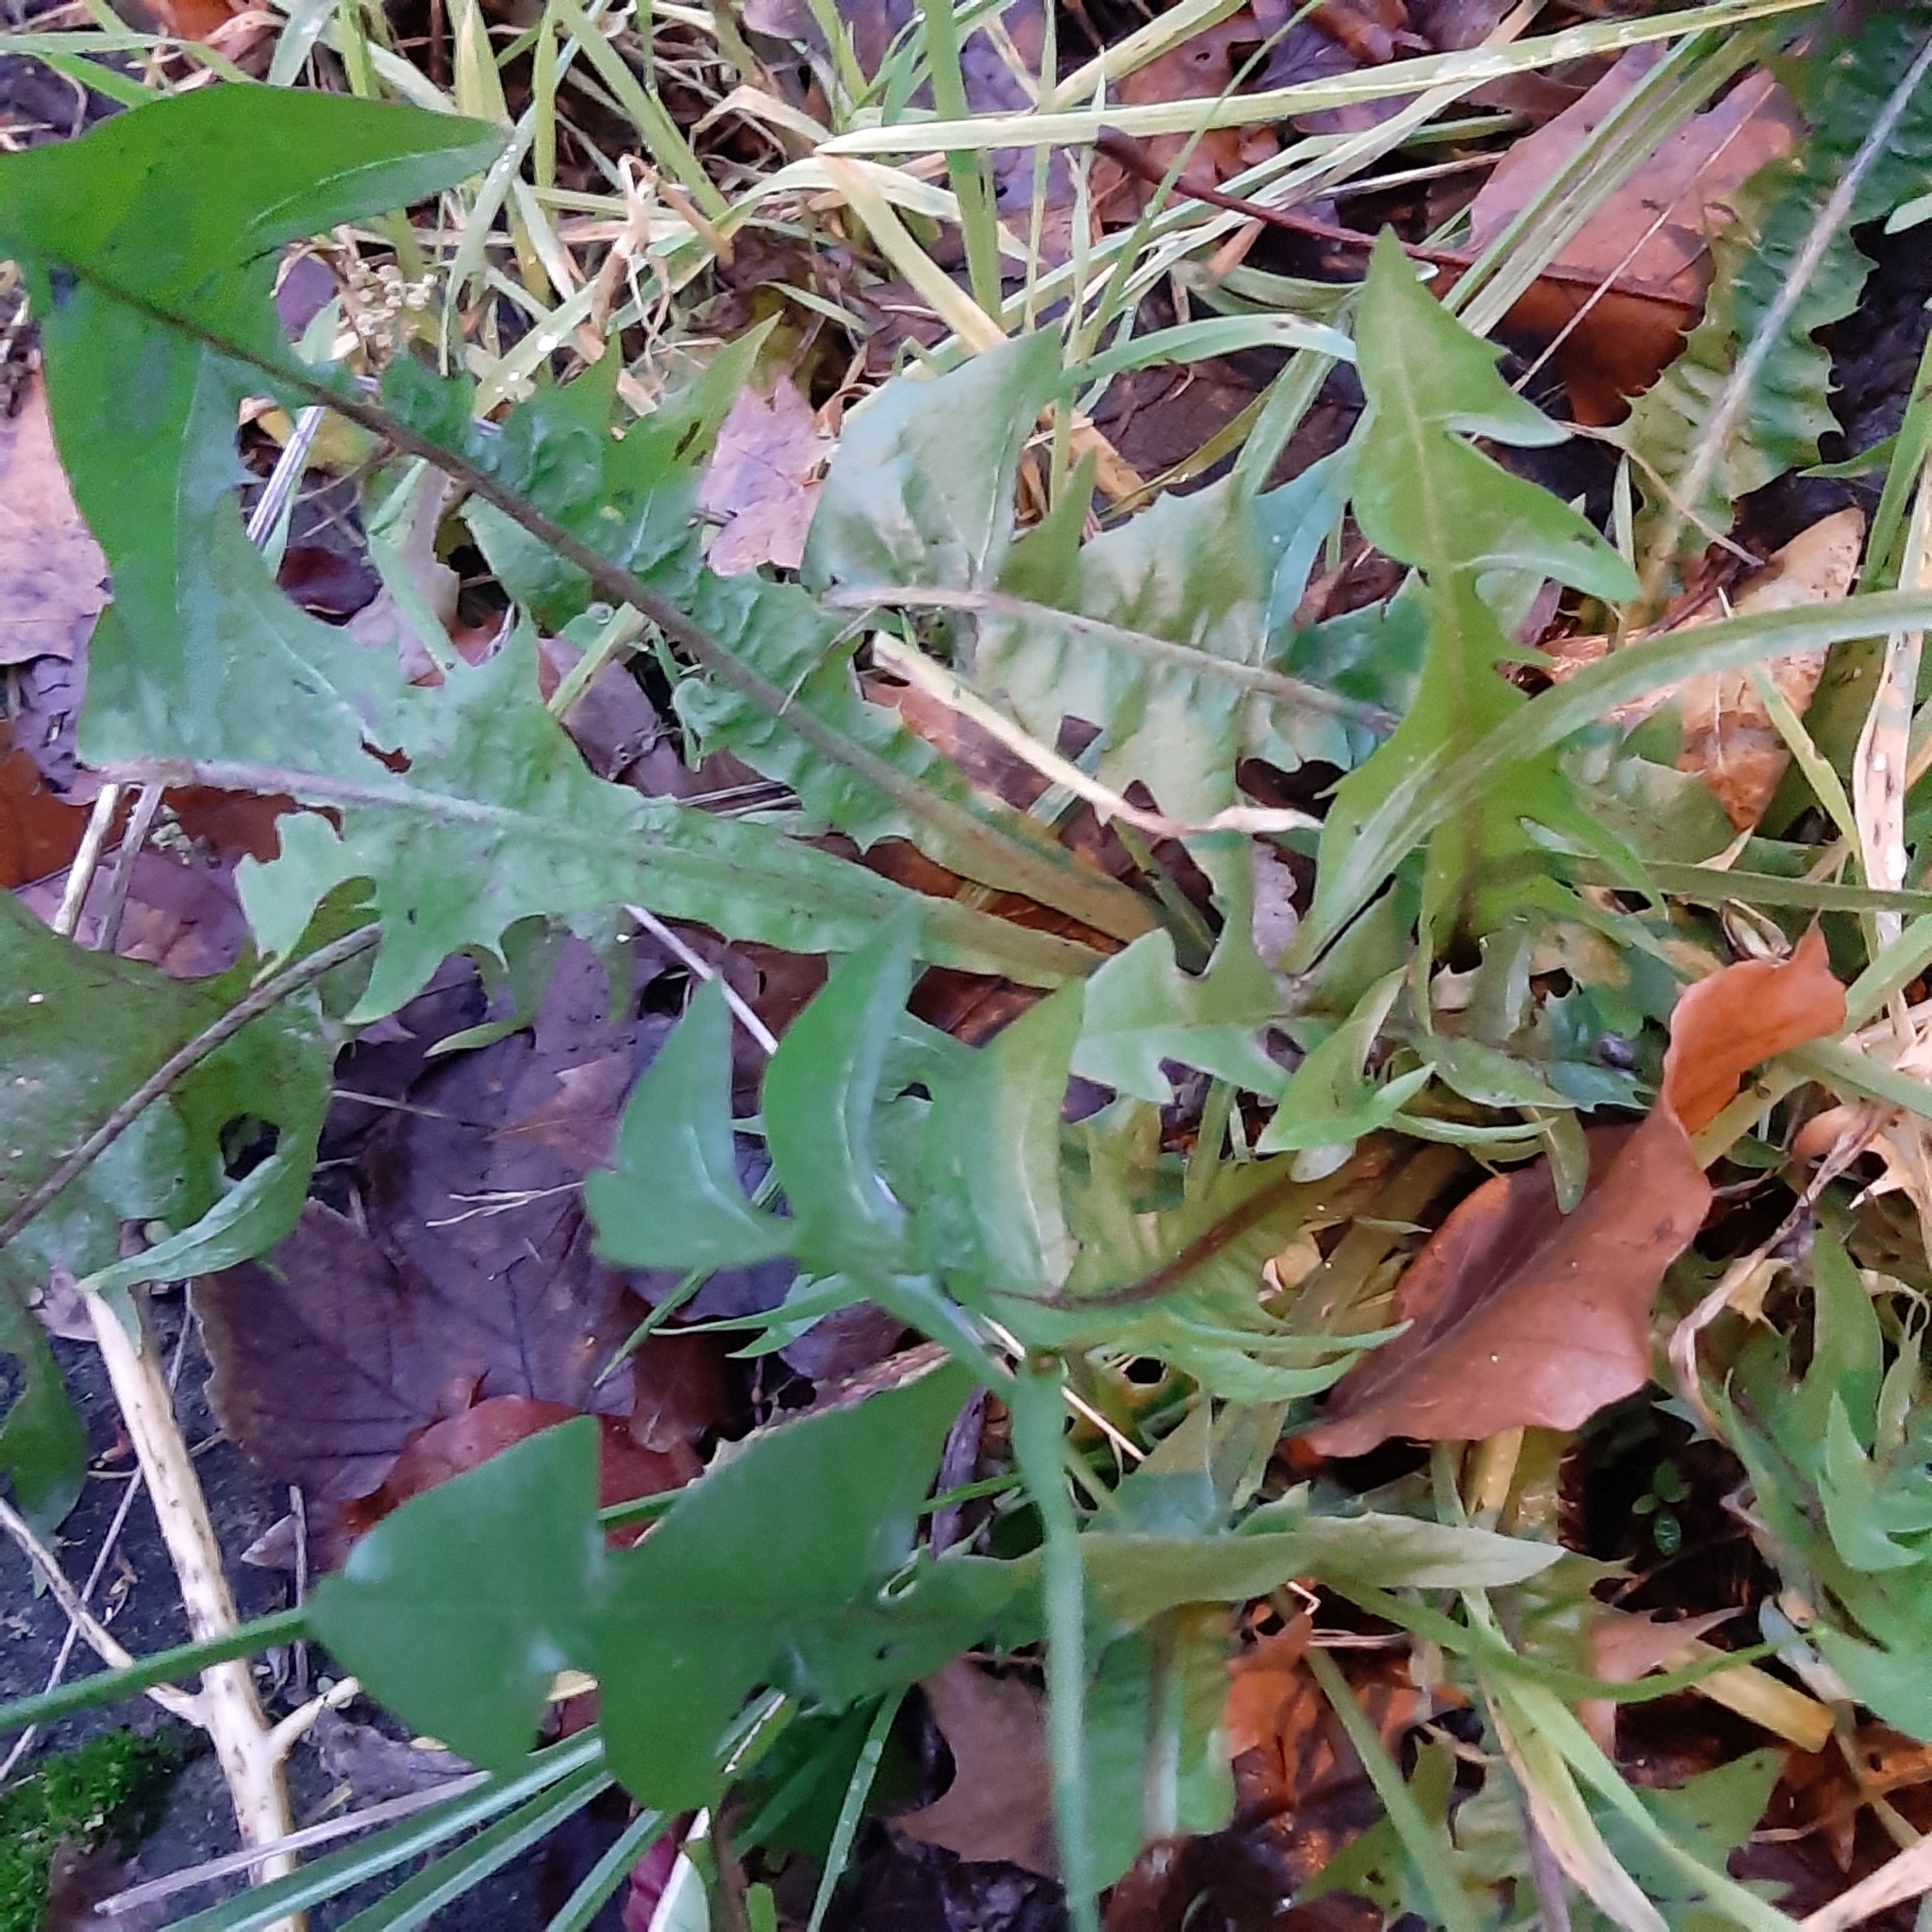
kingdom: Plantae
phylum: Tracheophyta
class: Magnoliopsida
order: Asterales
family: Asteraceae
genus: Taraxacum
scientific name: Taraxacum officinale
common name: Common dandelion
